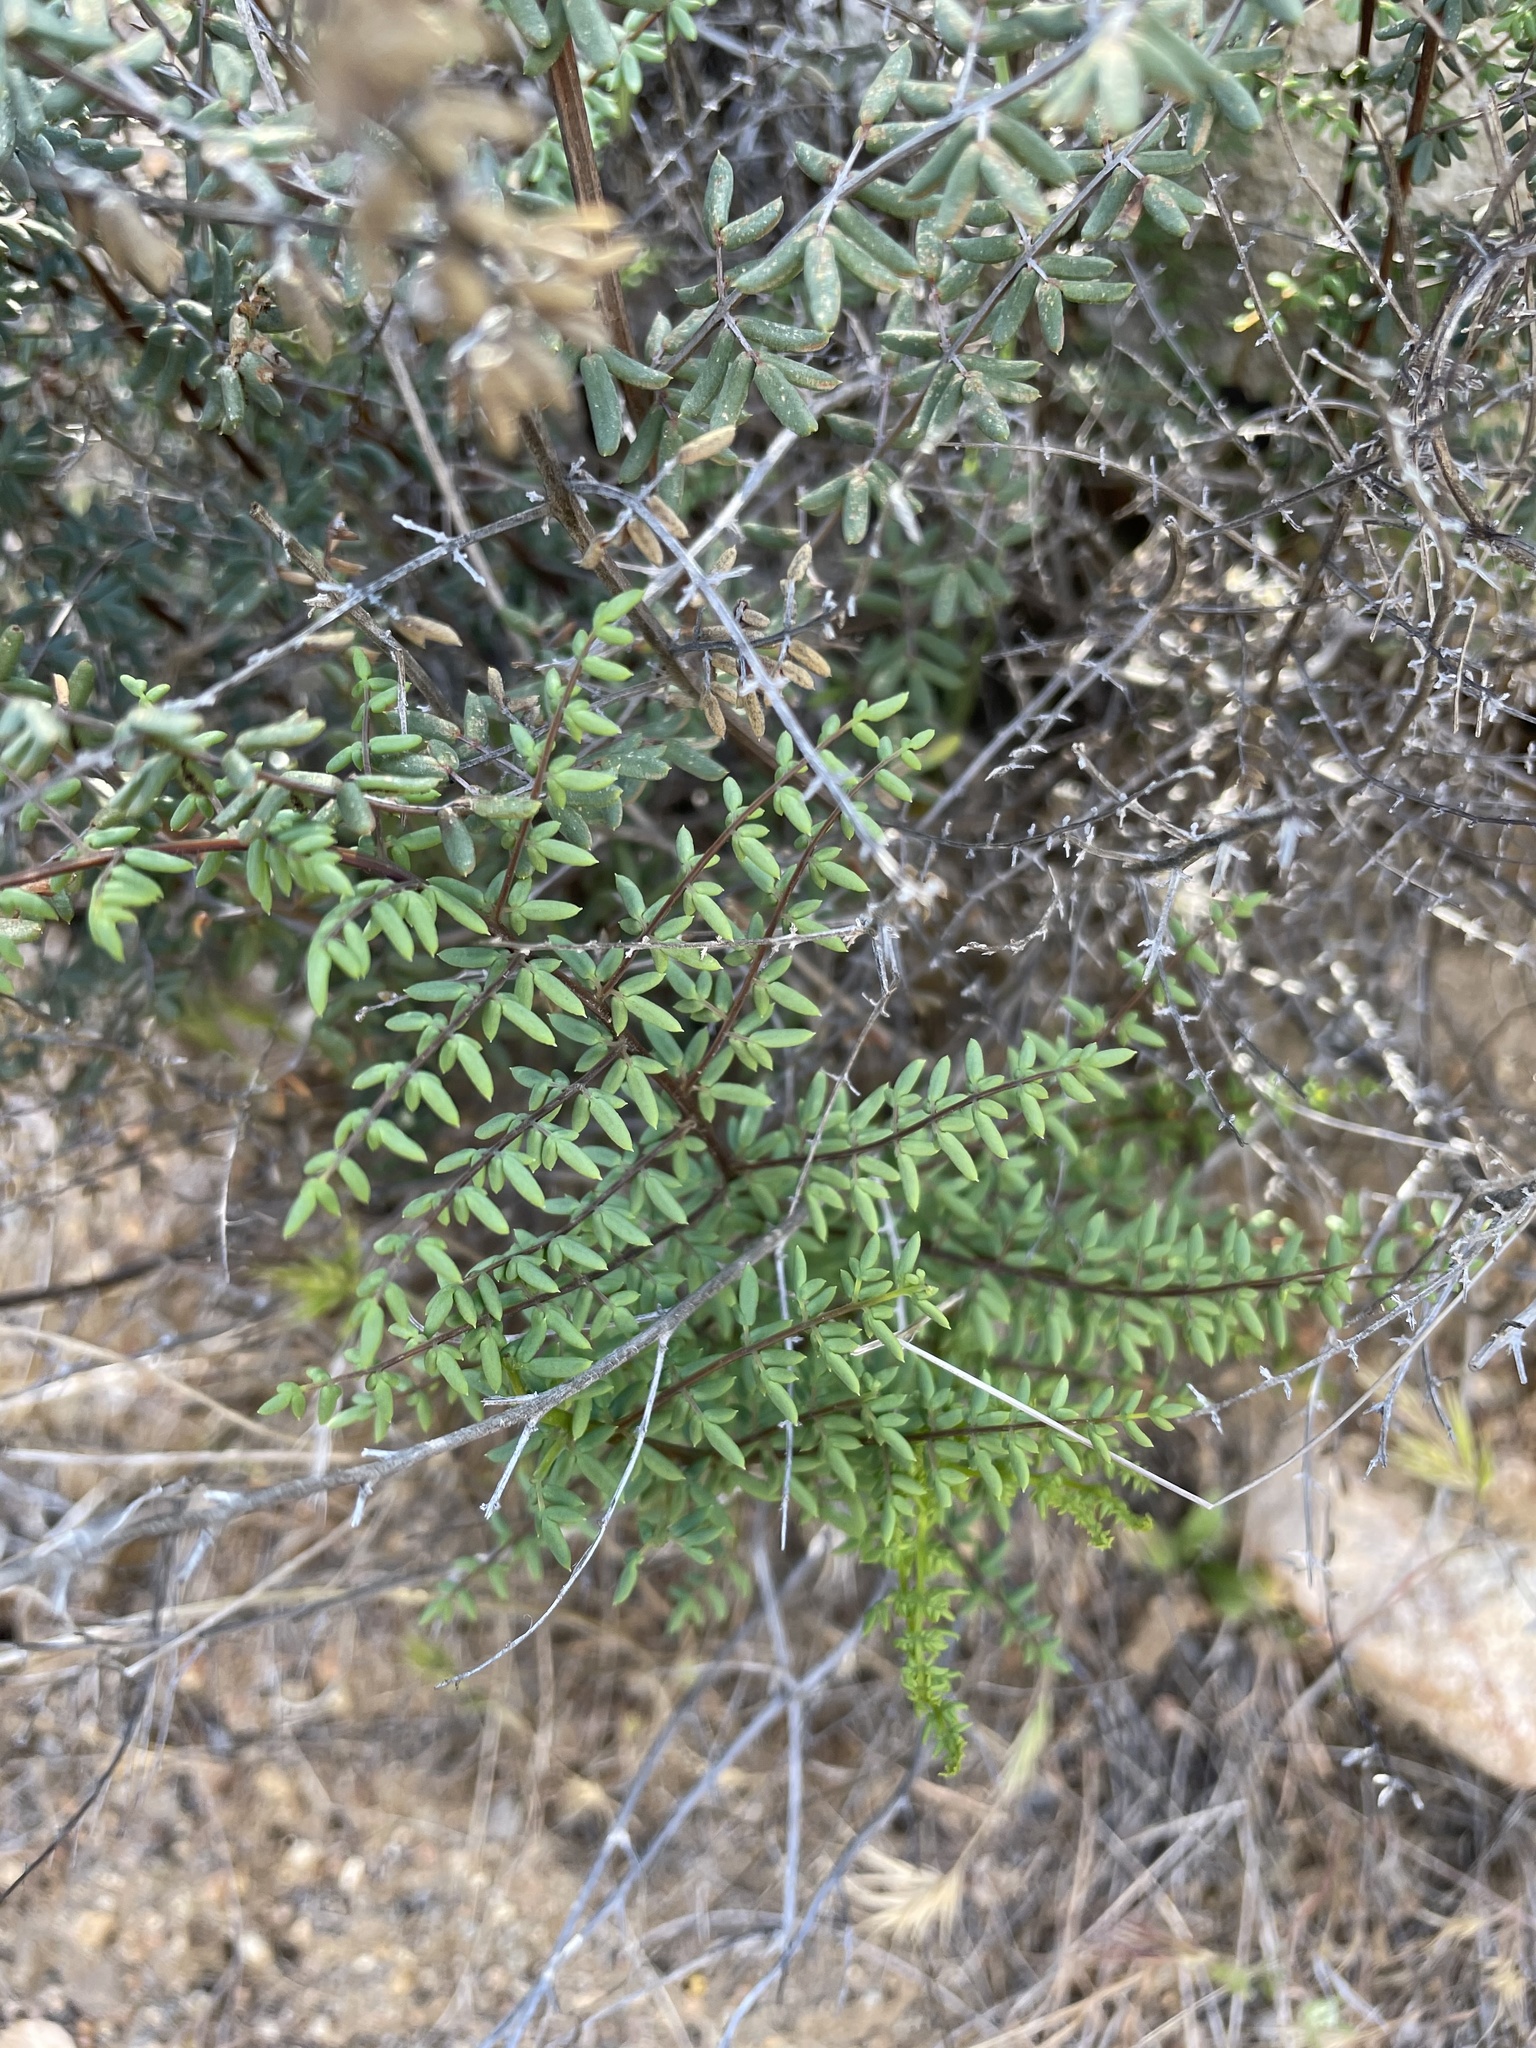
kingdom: Plantae
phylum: Tracheophyta
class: Polypodiopsida
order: Polypodiales
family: Pteridaceae
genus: Pellaea
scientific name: Pellaea mucronata
